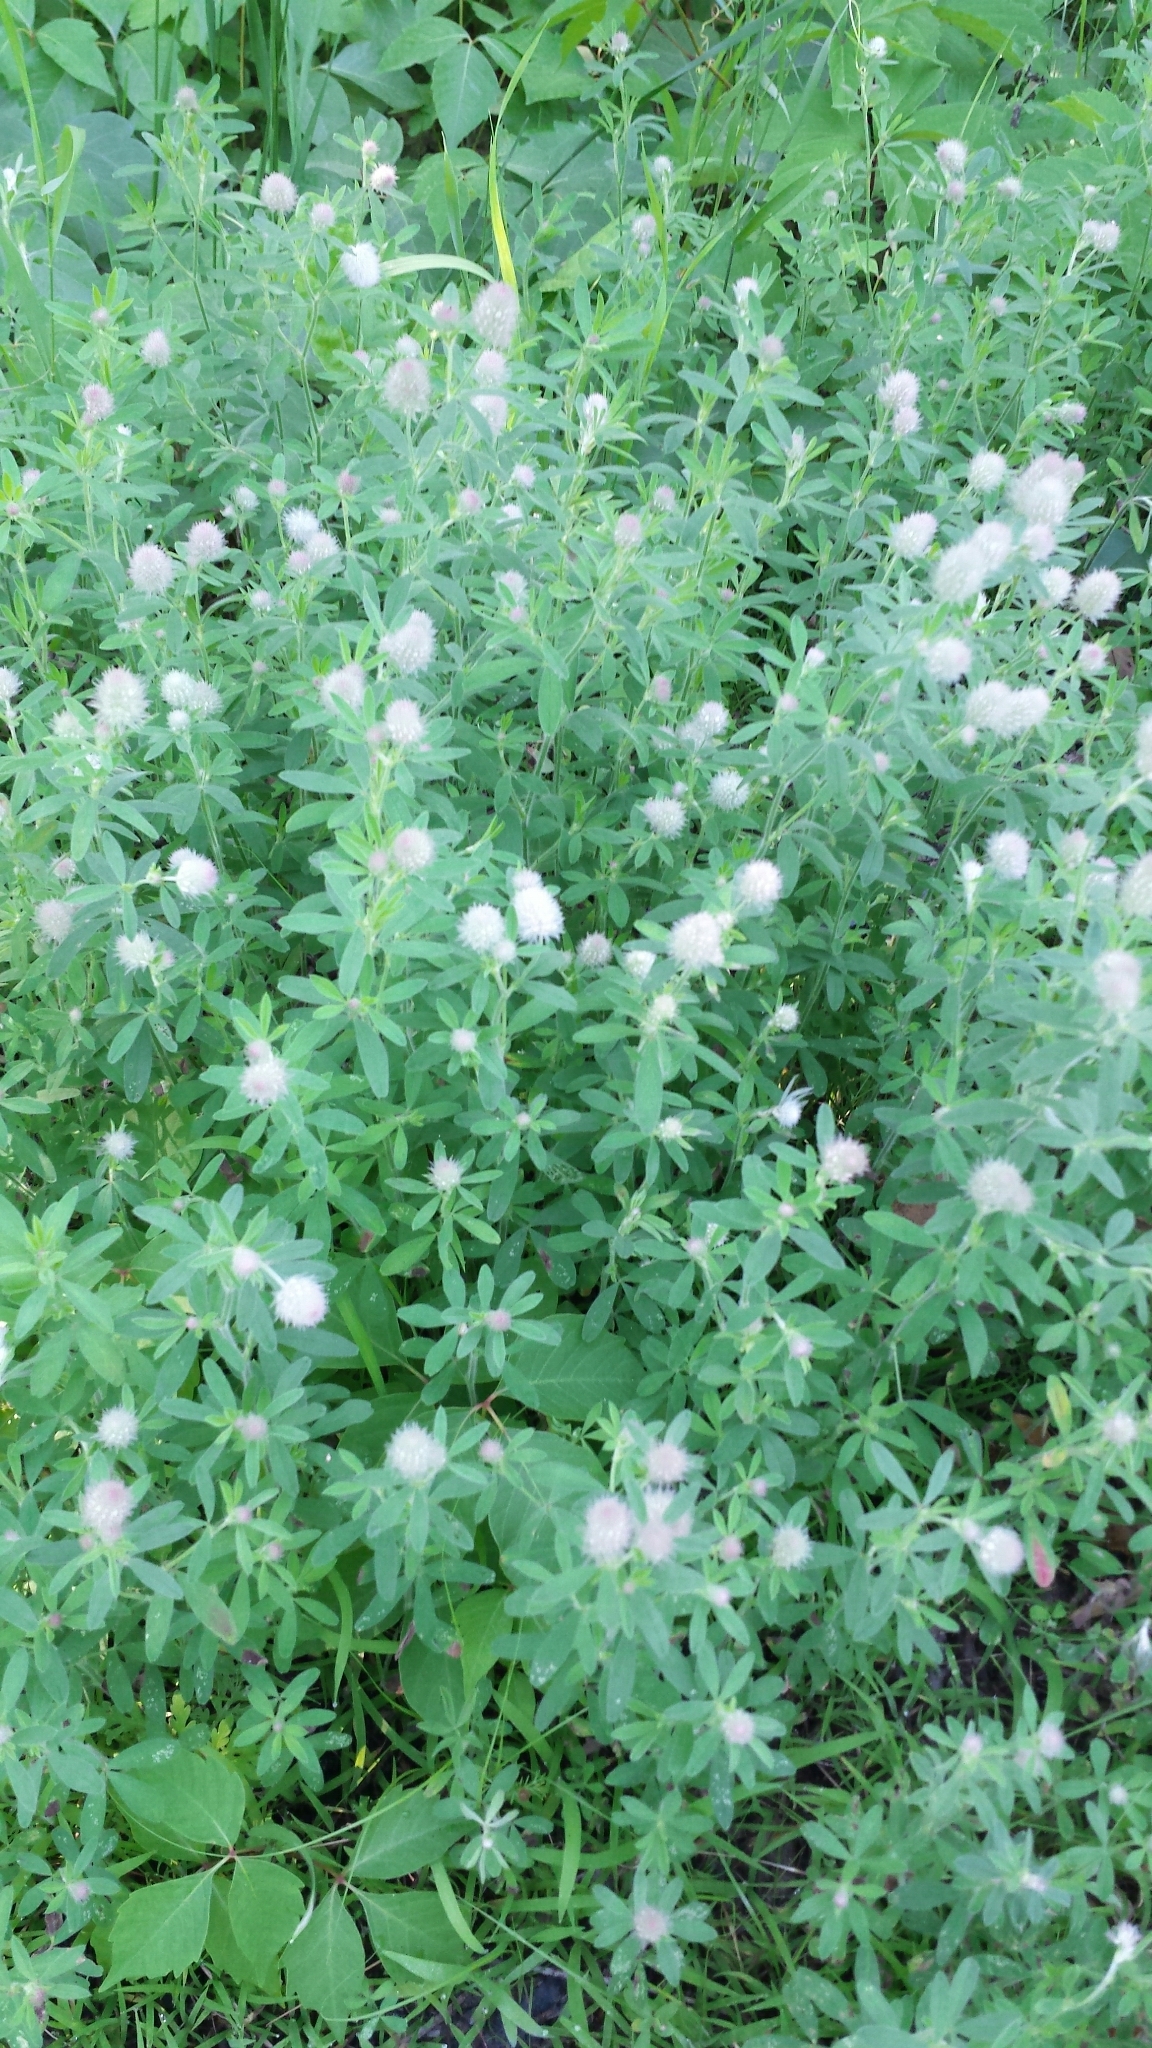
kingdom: Plantae
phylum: Tracheophyta
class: Magnoliopsida
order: Fabales
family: Fabaceae
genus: Trifolium
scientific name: Trifolium arvense
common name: Hare's-foot clover
